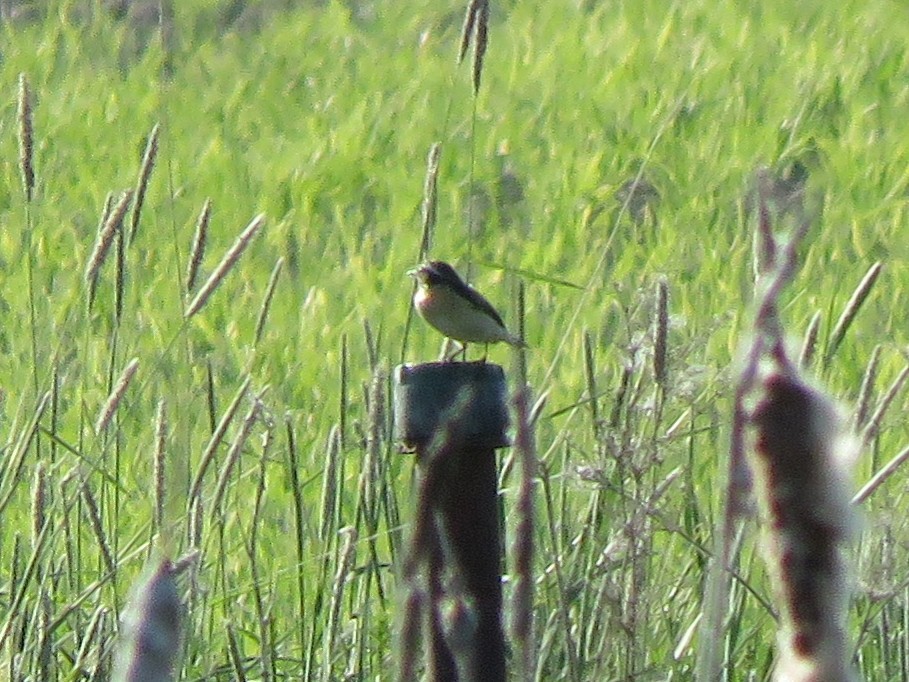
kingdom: Animalia
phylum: Chordata
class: Aves
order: Passeriformes
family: Muscicapidae
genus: Saxicola
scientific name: Saxicola rubetra
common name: Whinchat
